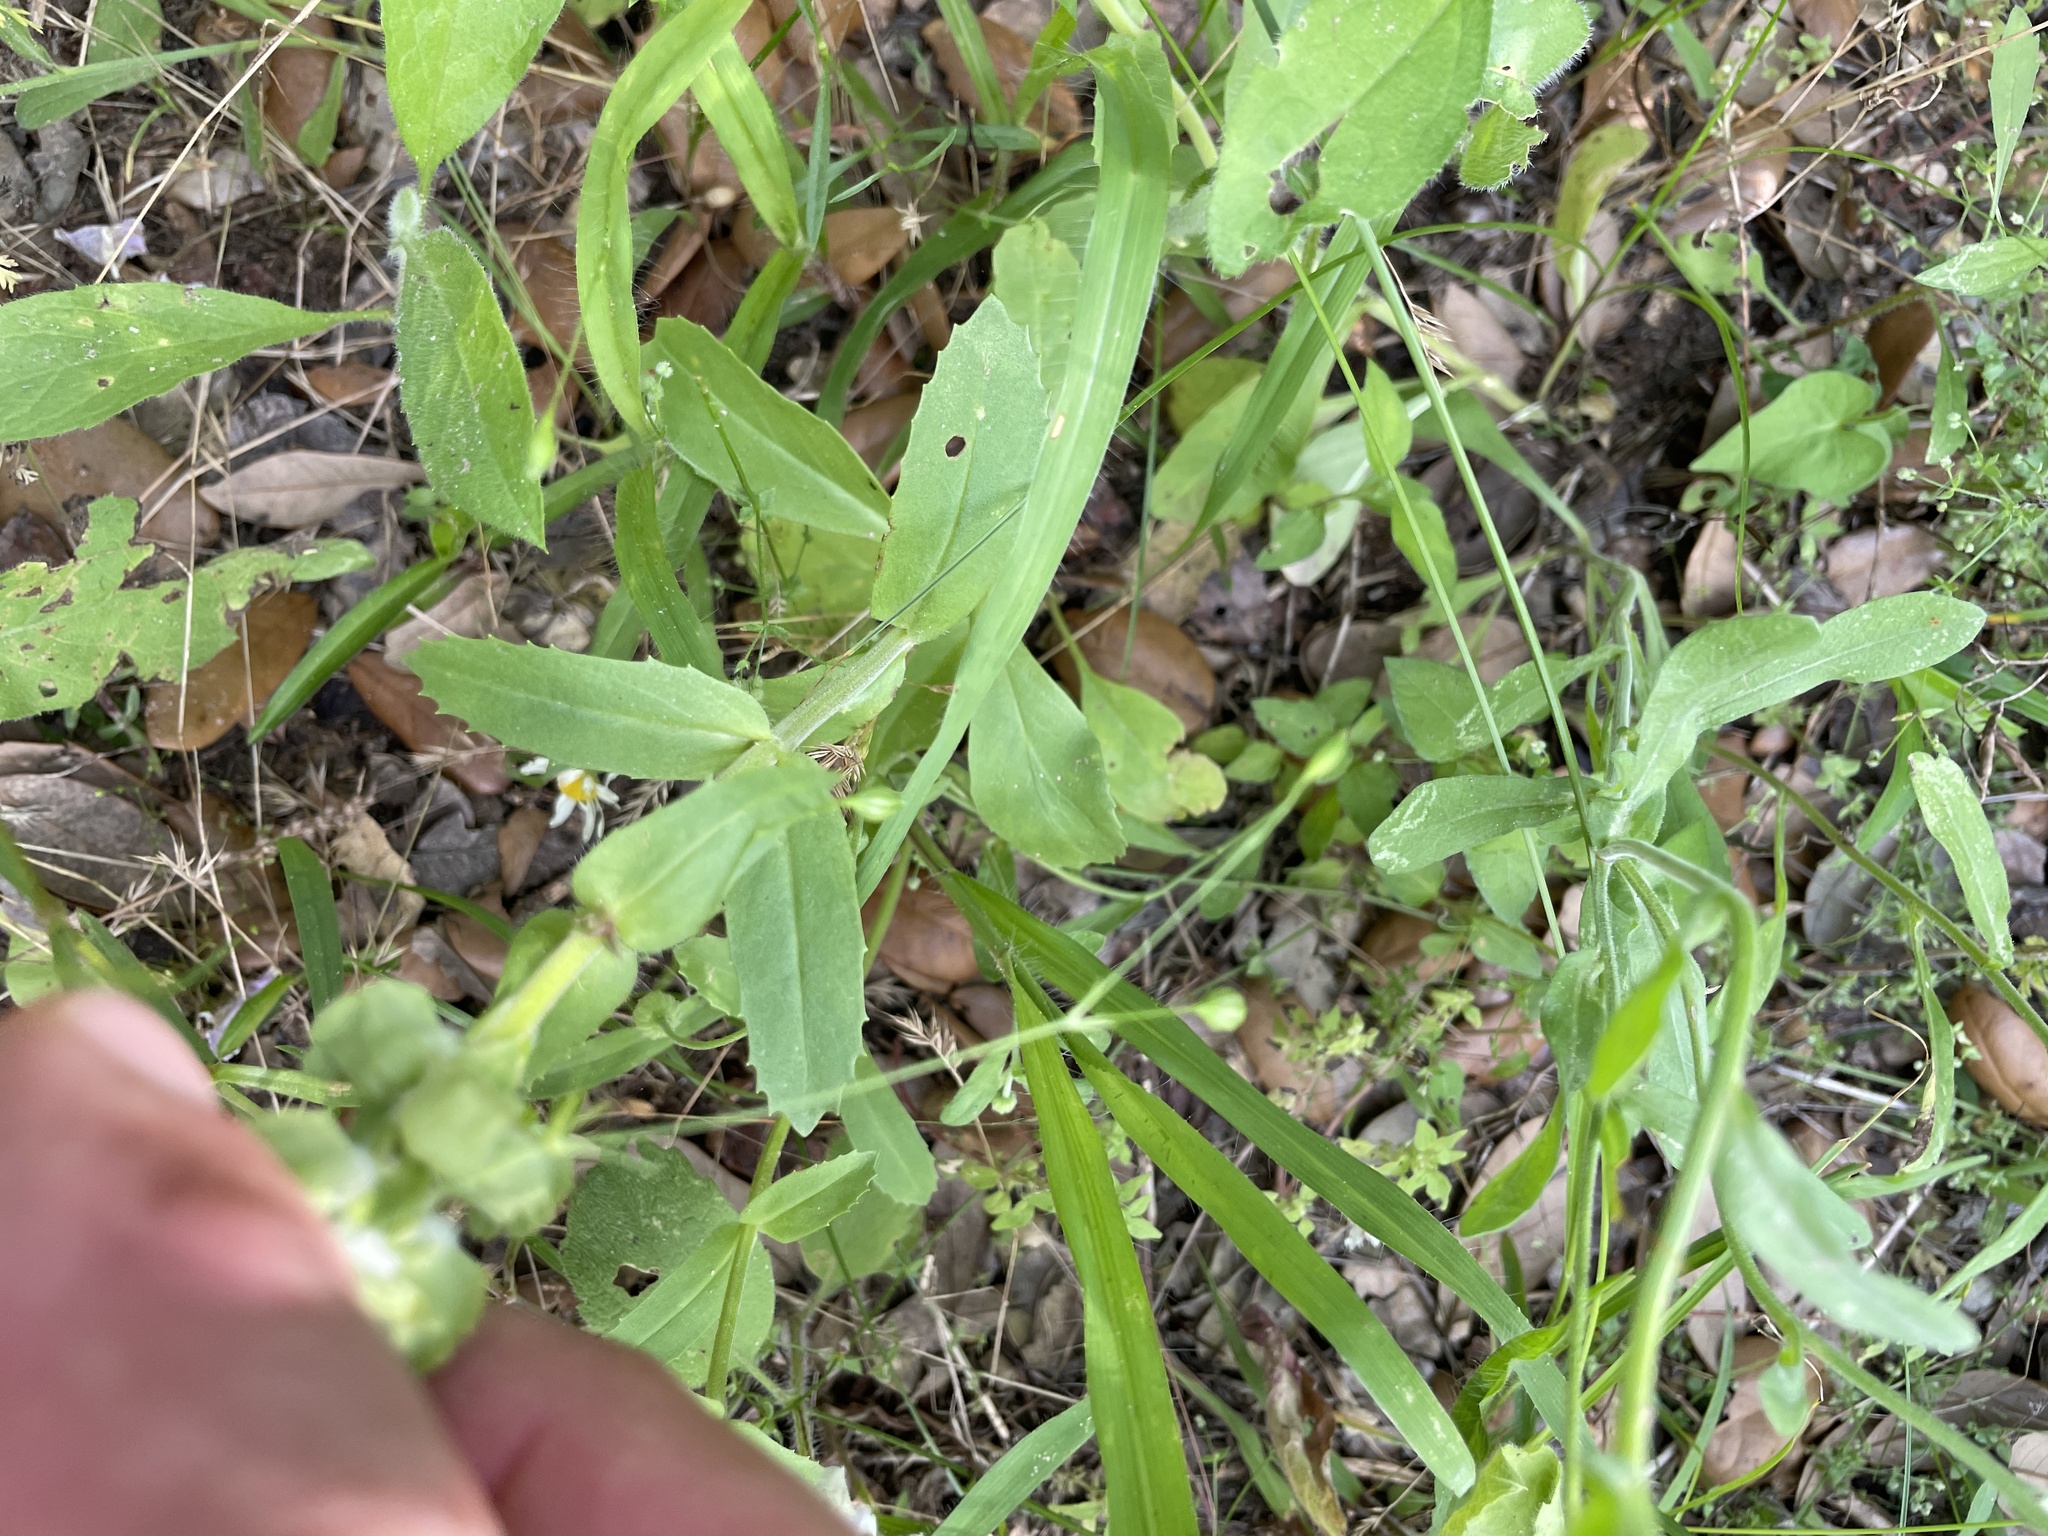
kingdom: Plantae
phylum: Tracheophyta
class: Magnoliopsida
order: Lamiales
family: Lamiaceae
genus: Brazoria
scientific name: Brazoria truncata
